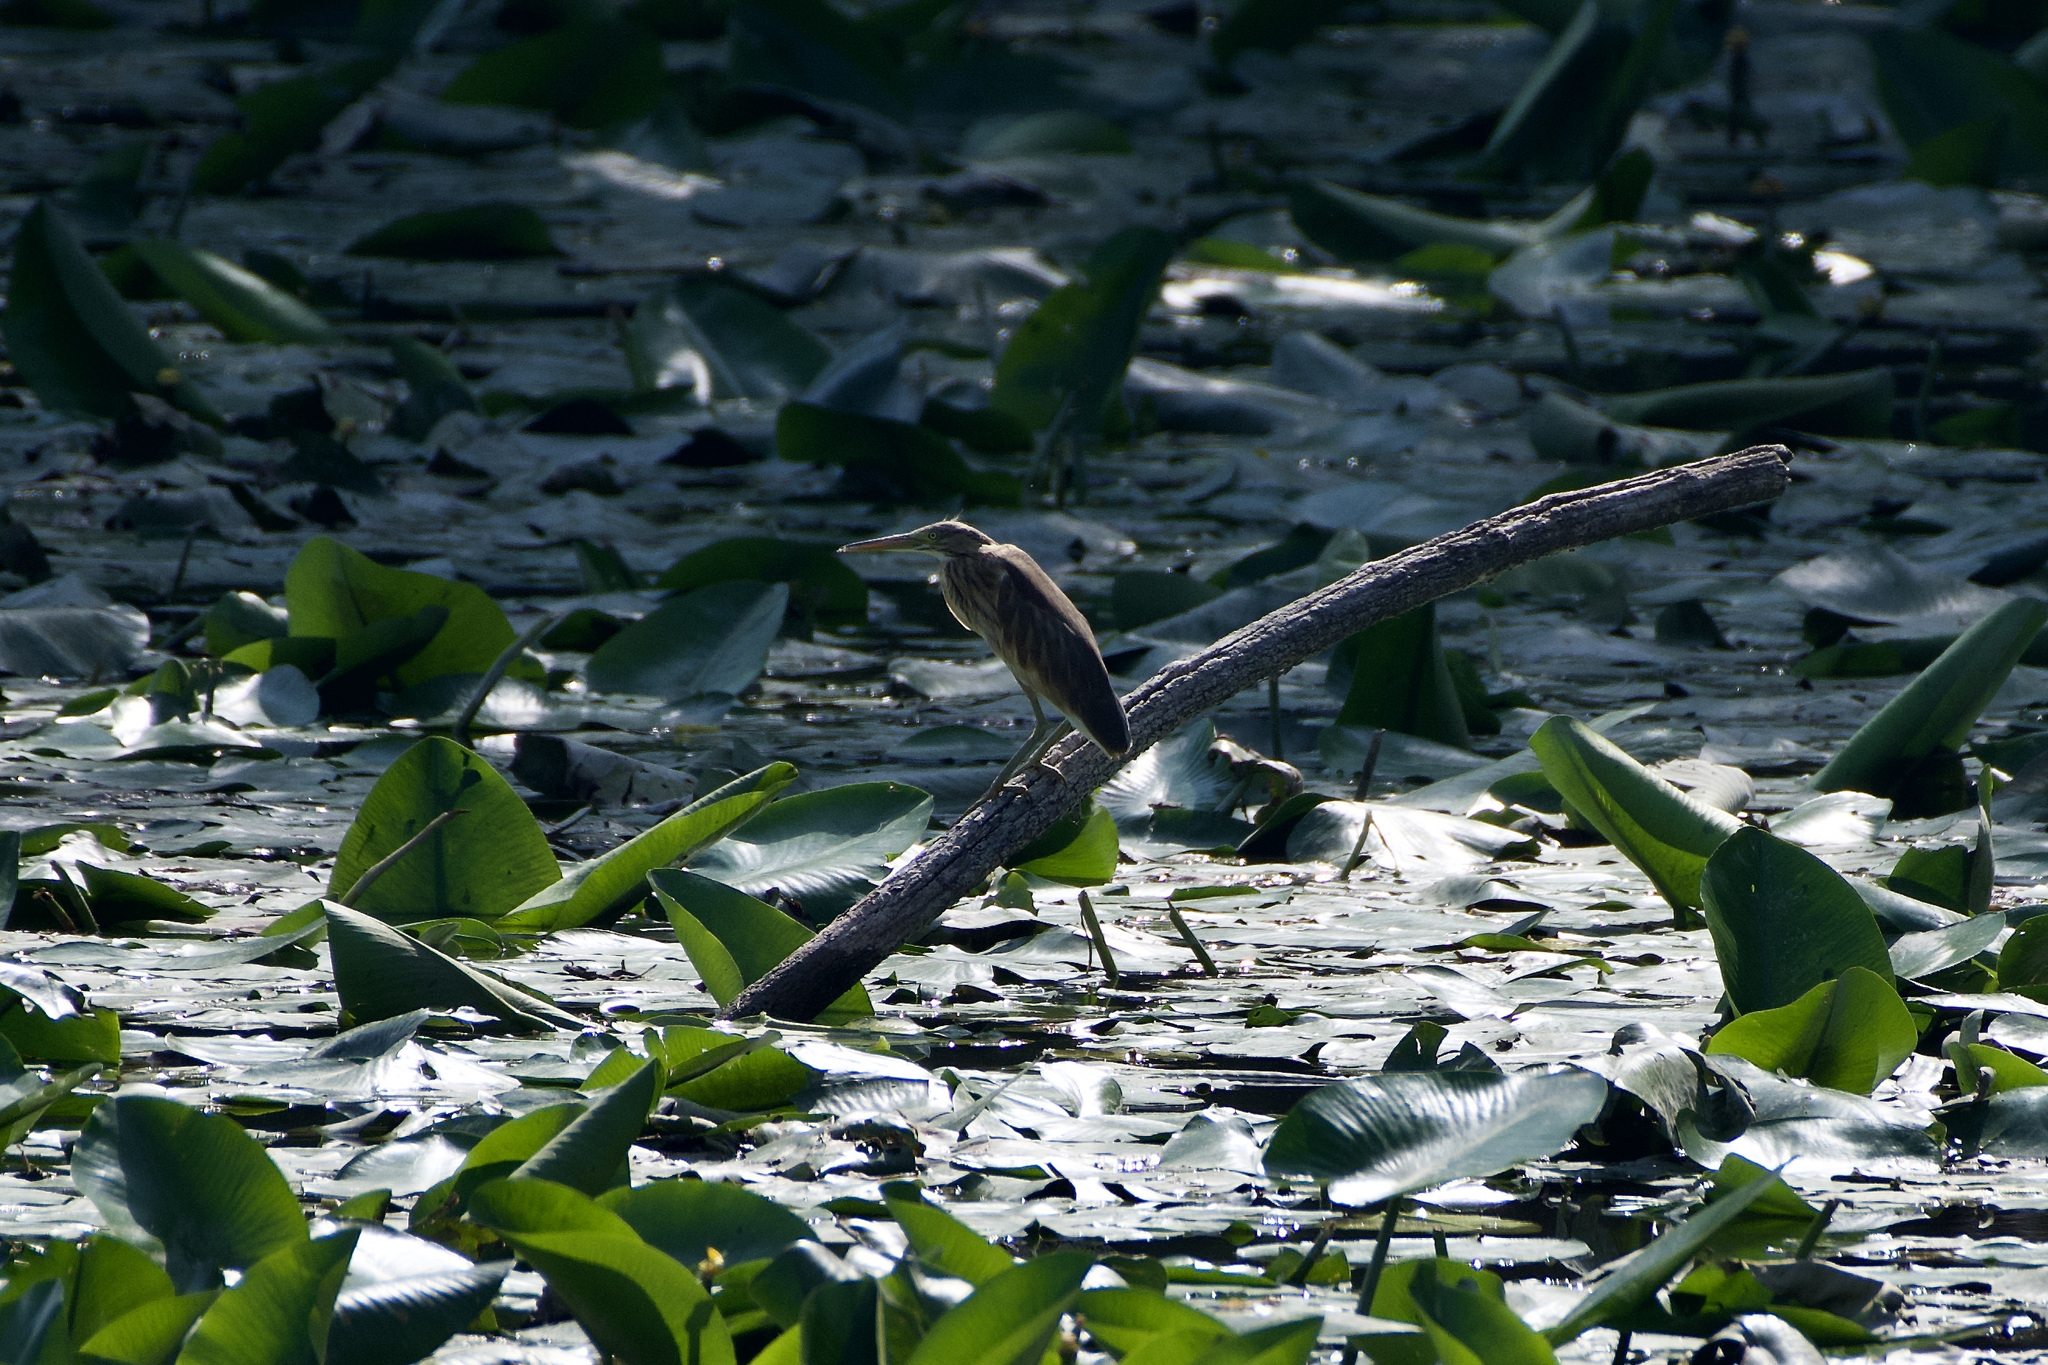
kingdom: Animalia
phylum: Chordata
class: Aves
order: Pelecaniformes
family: Ardeidae
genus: Ardeola
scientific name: Ardeola ralloides
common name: Squacco heron
